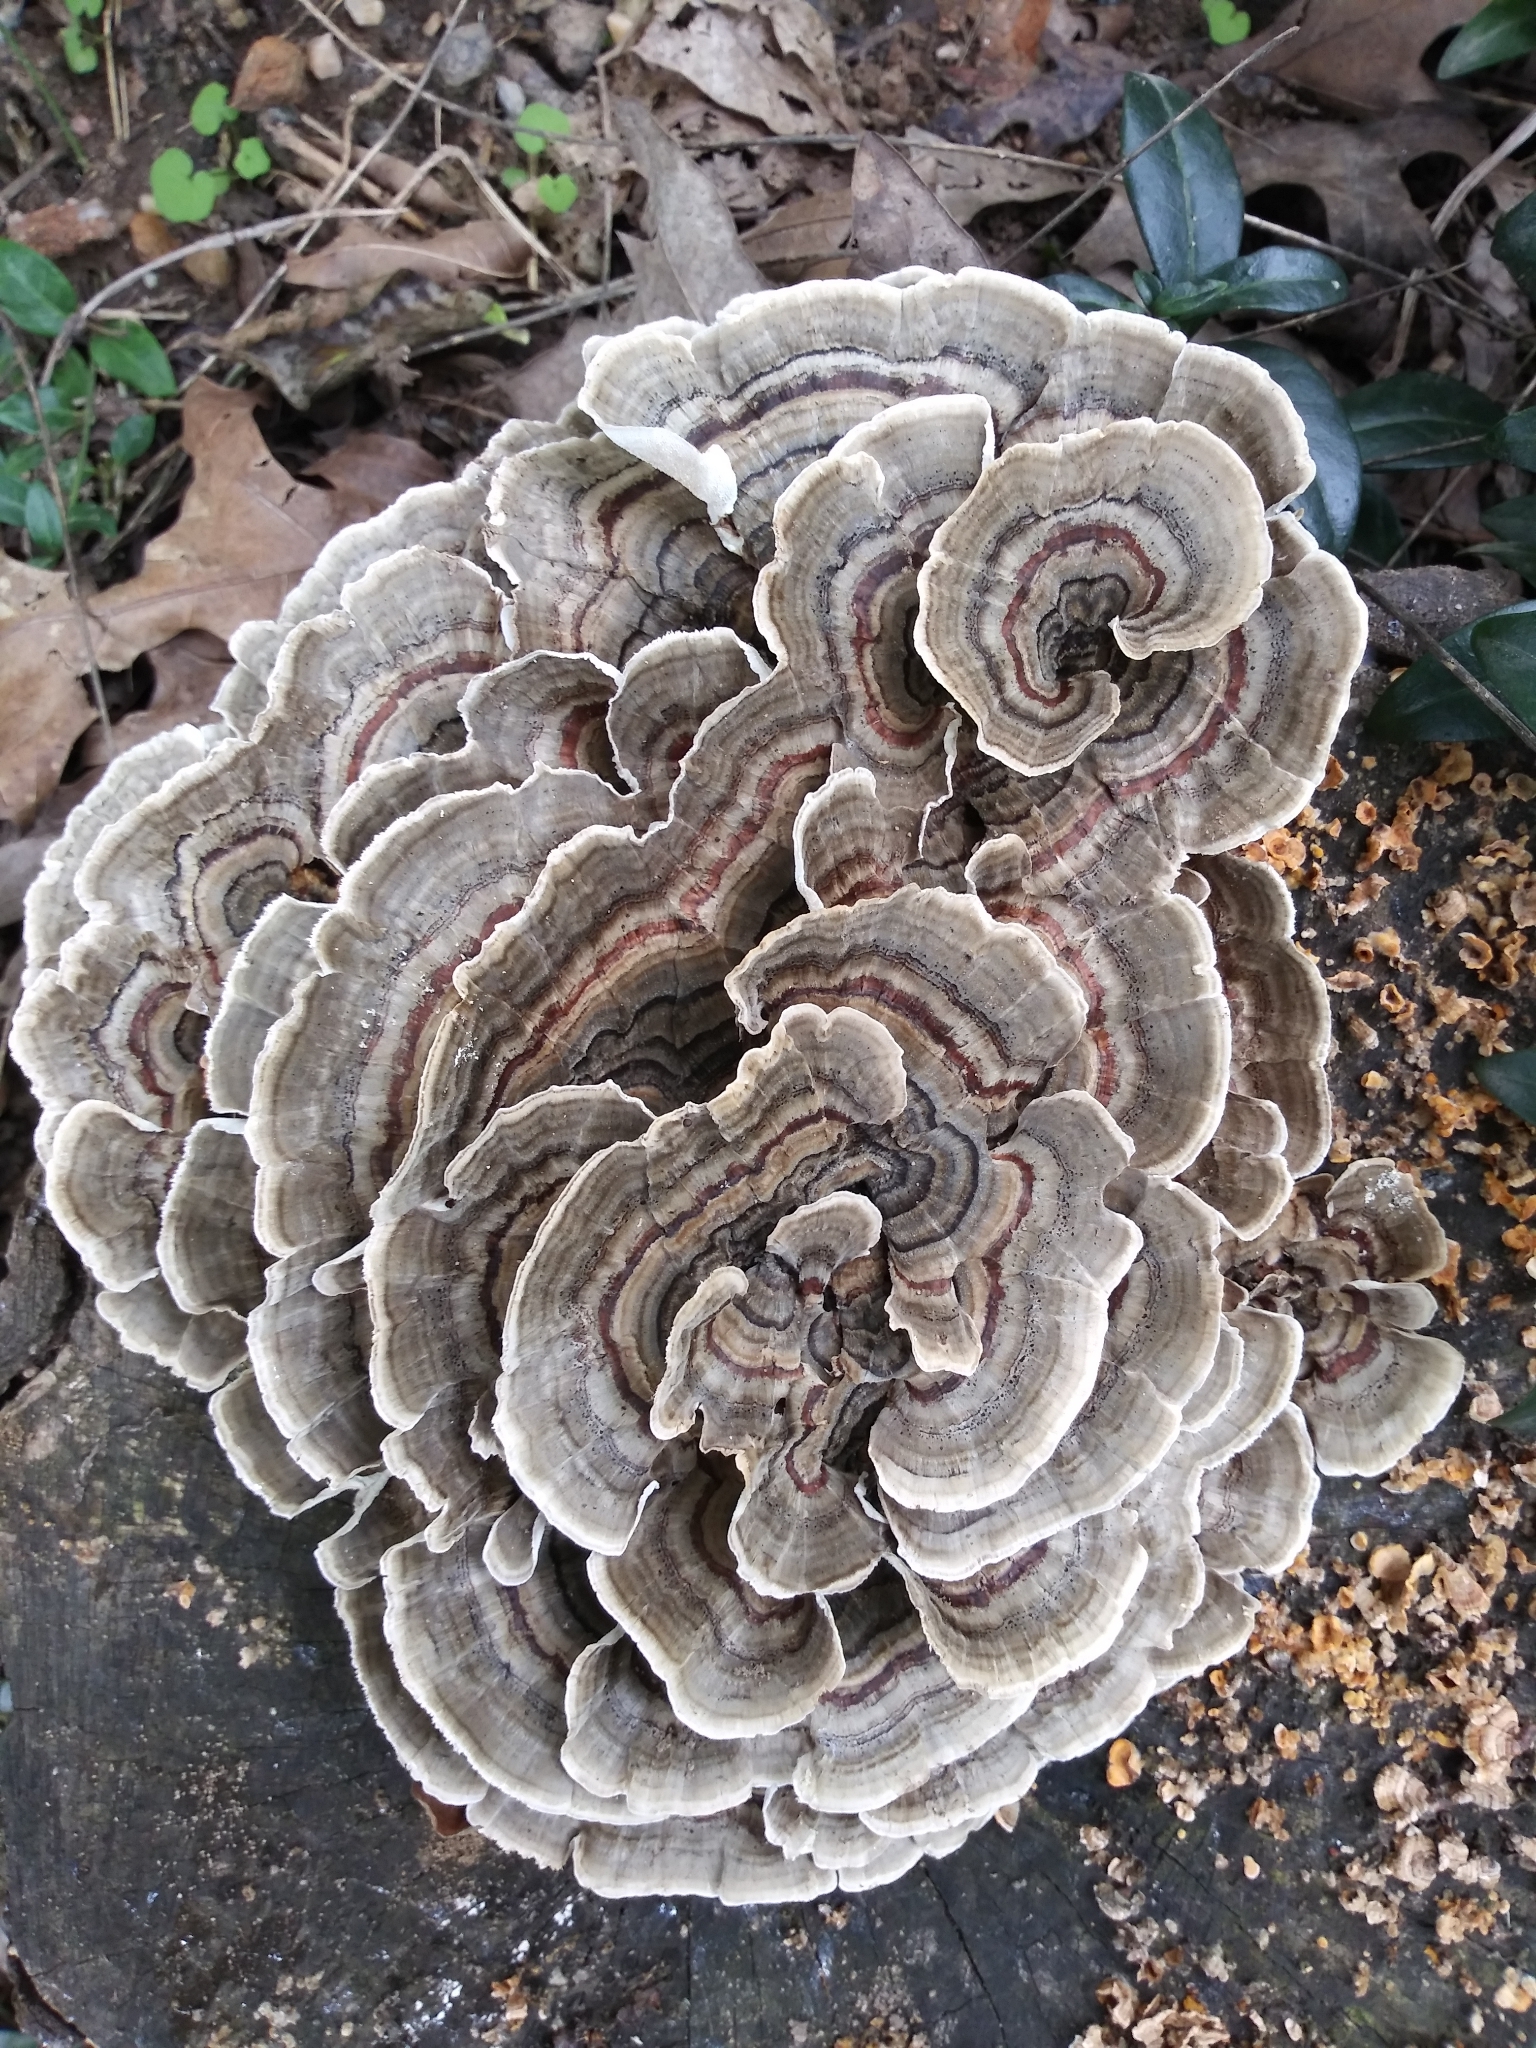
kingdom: Fungi
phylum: Basidiomycota
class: Agaricomycetes
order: Polyporales
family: Polyporaceae
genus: Trametes
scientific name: Trametes versicolor
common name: Turkeytail
